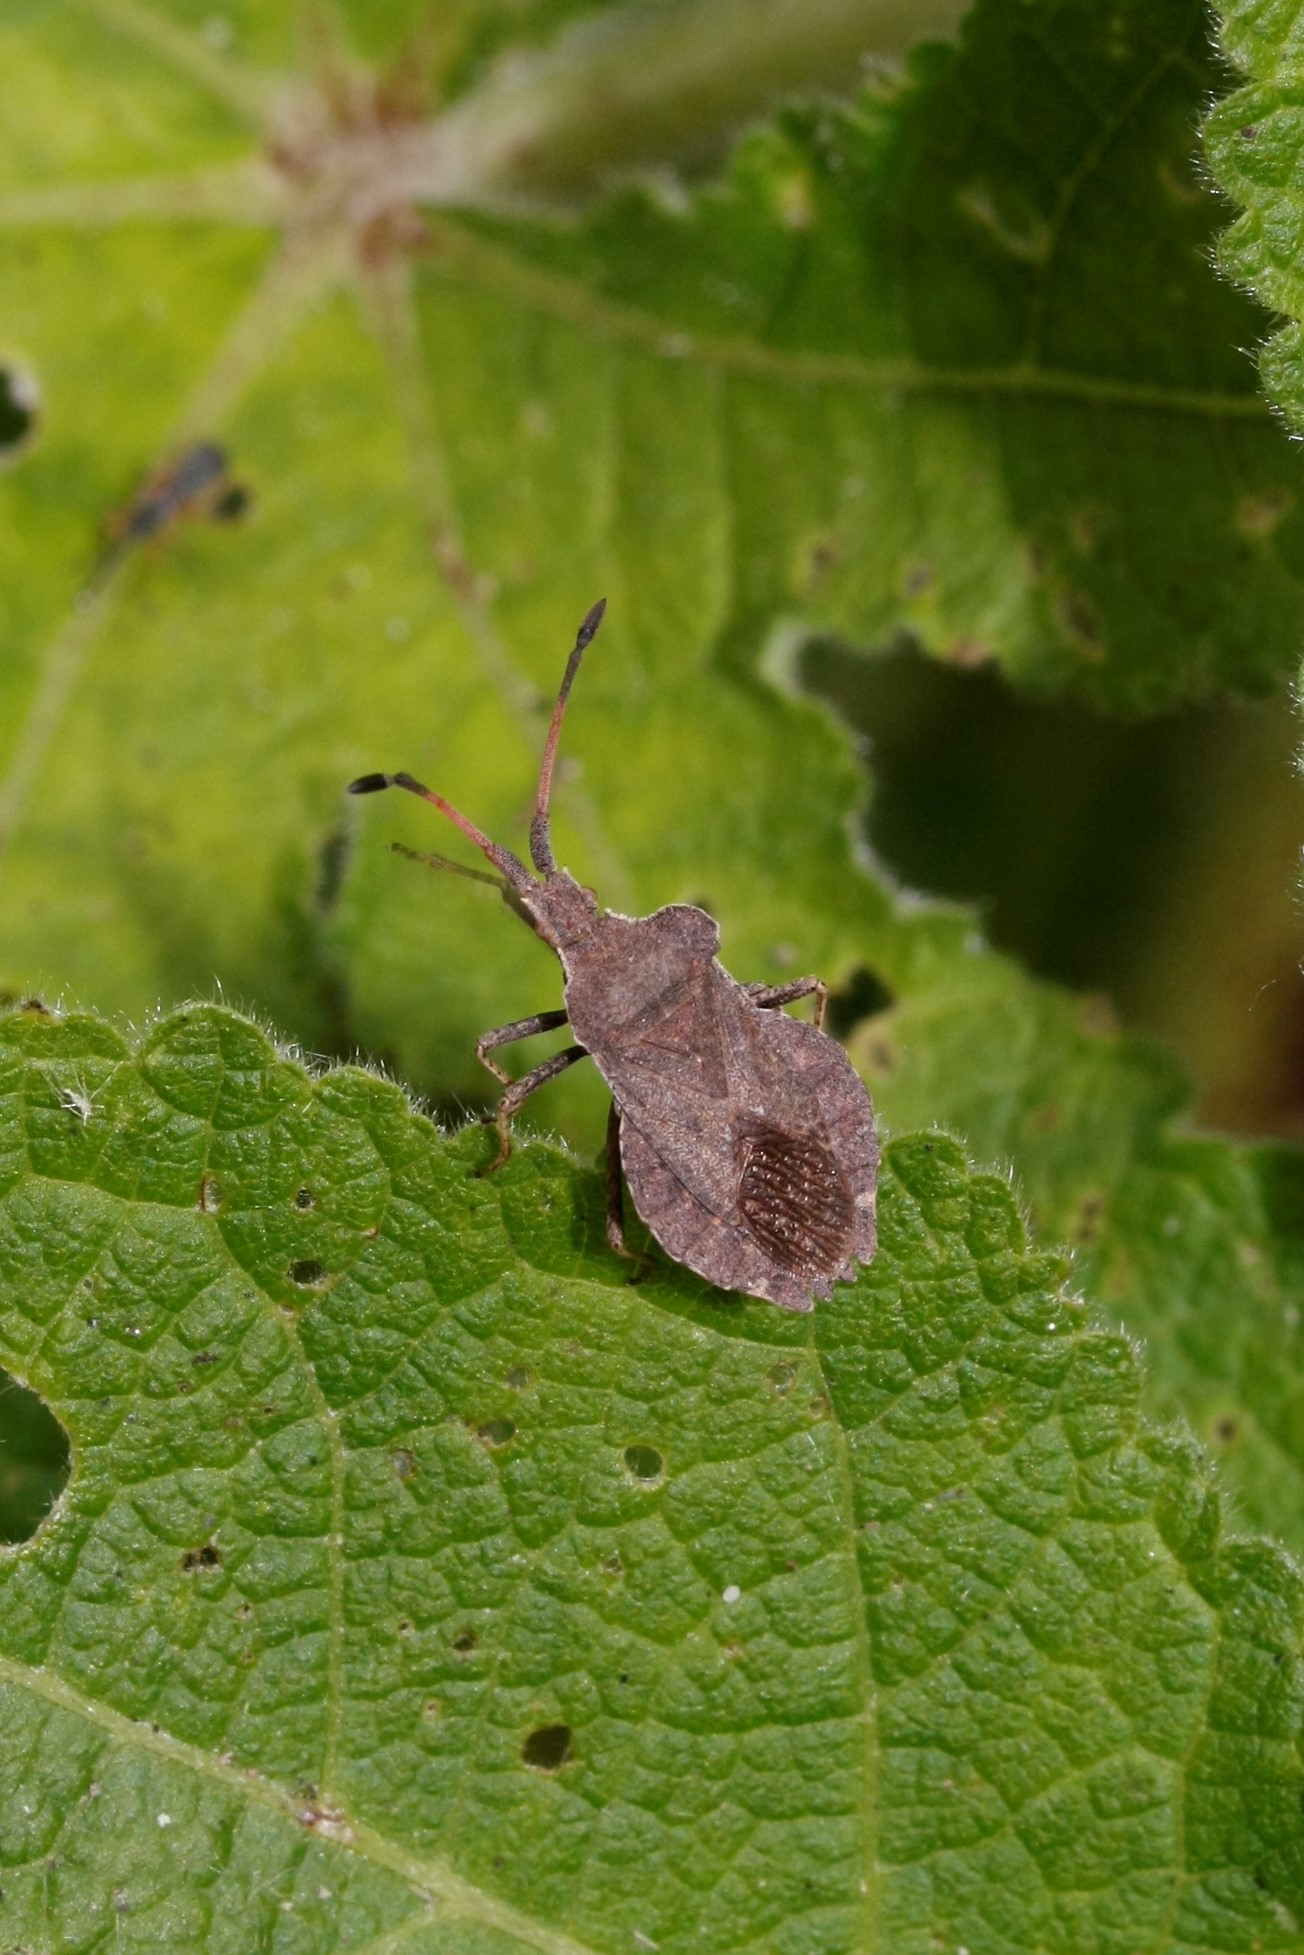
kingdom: Animalia
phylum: Arthropoda
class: Insecta
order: Hemiptera
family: Coreidae
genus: Enoplops
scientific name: Enoplops scapha
